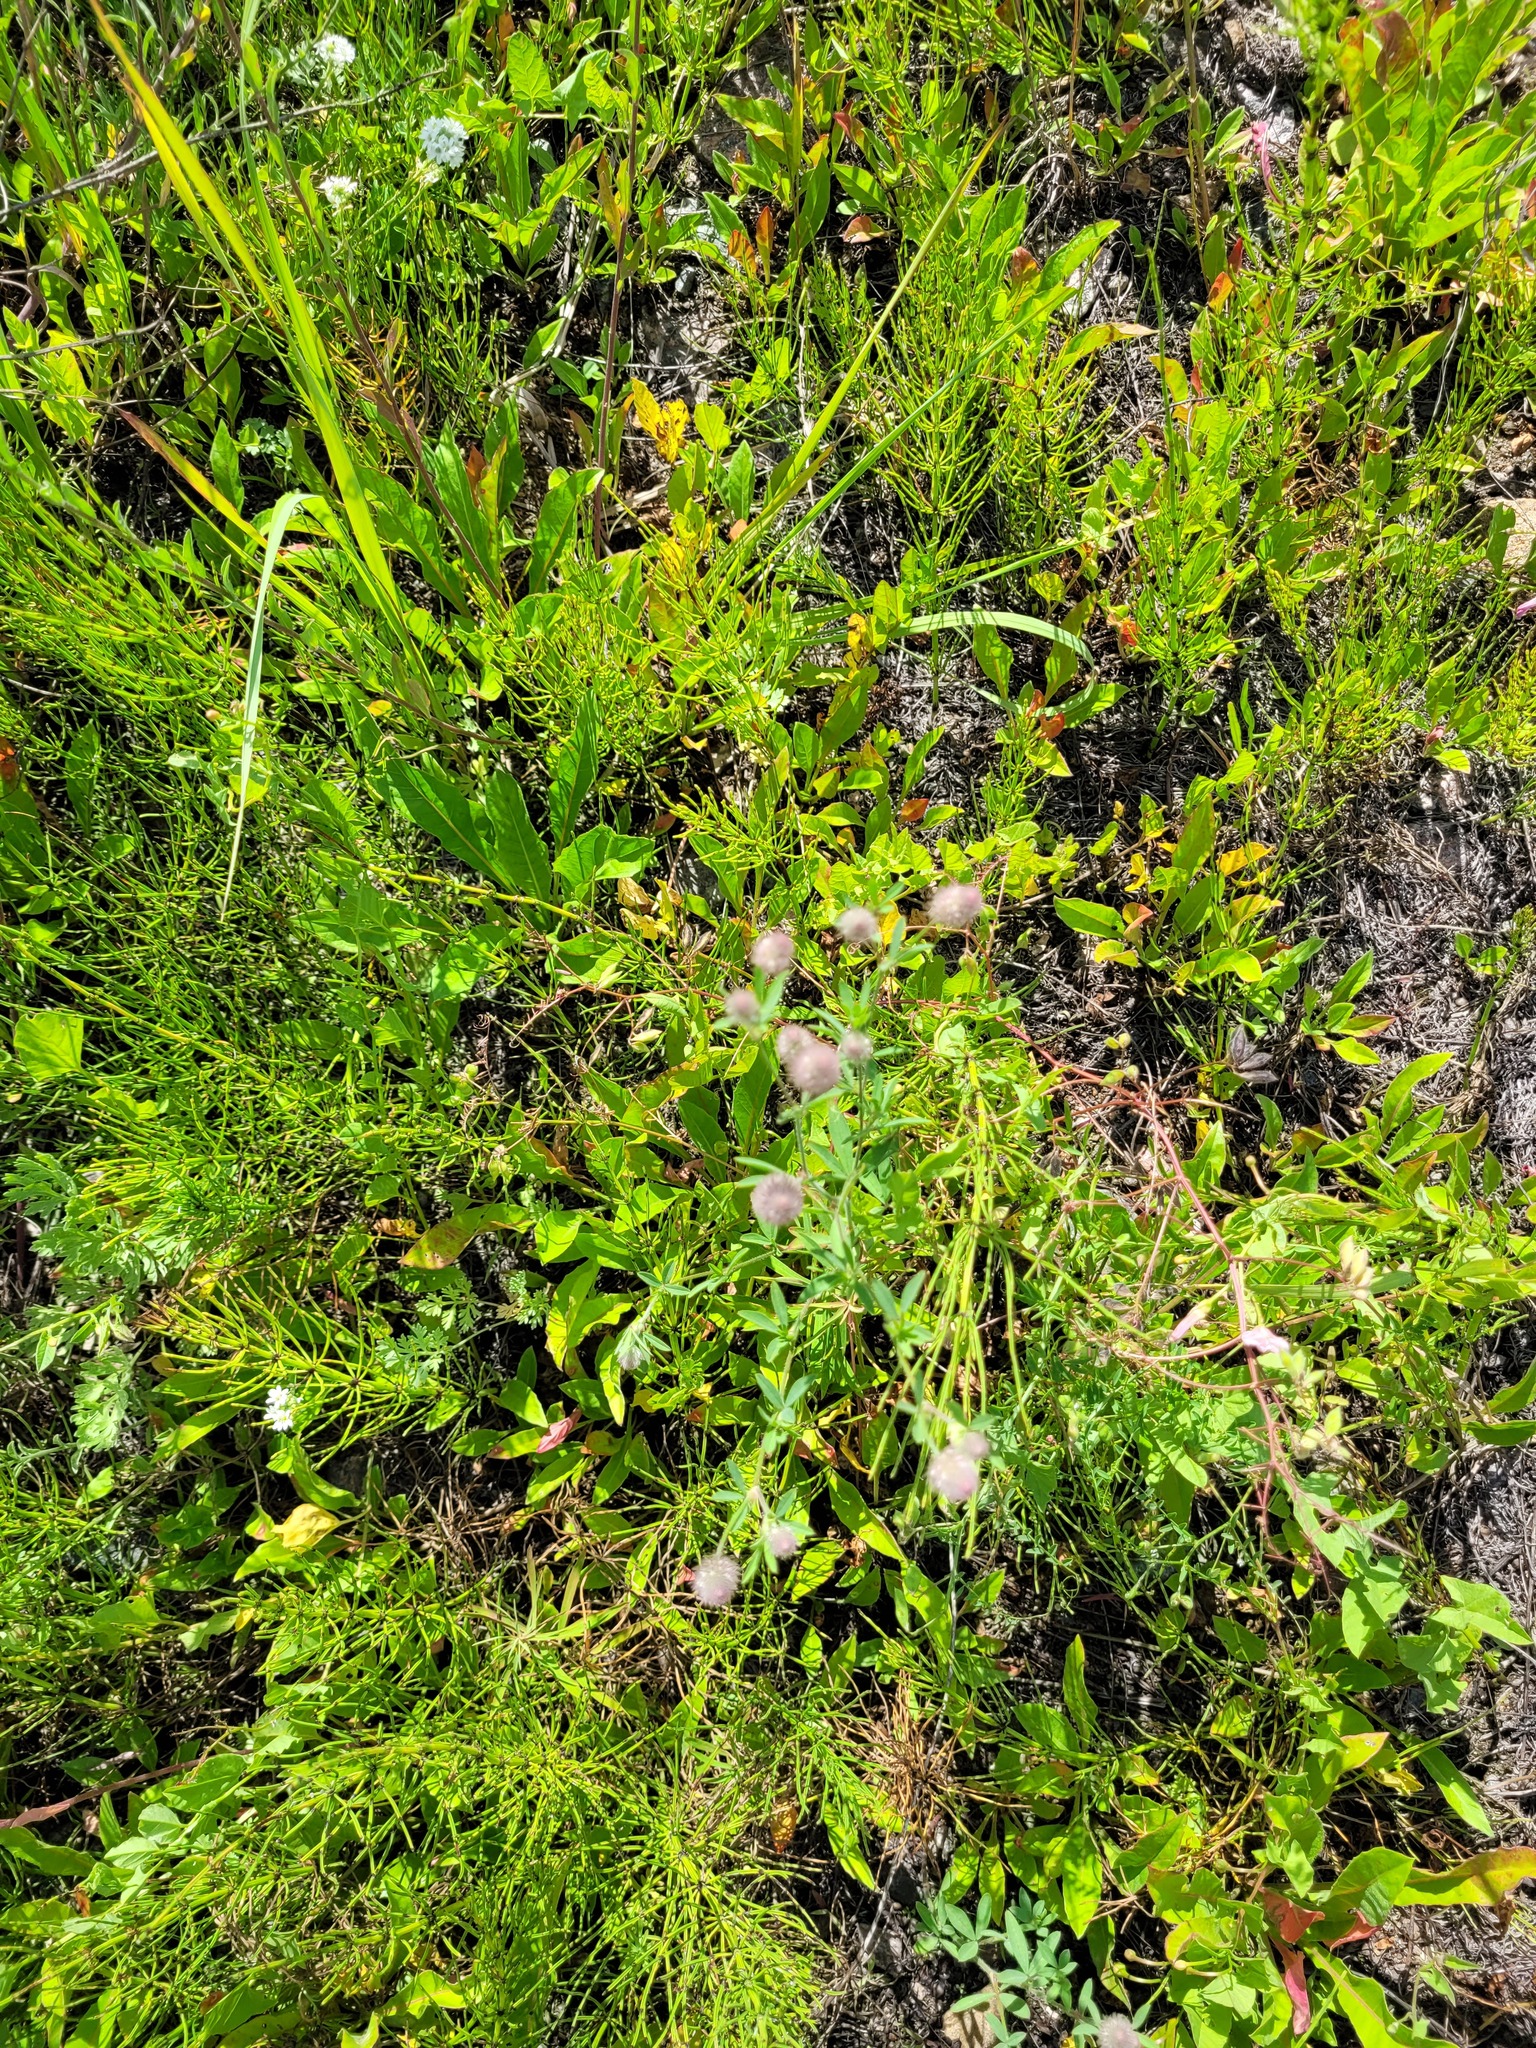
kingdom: Plantae
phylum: Tracheophyta
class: Magnoliopsida
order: Fabales
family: Fabaceae
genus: Trifolium
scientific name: Trifolium arvense
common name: Hare's-foot clover
